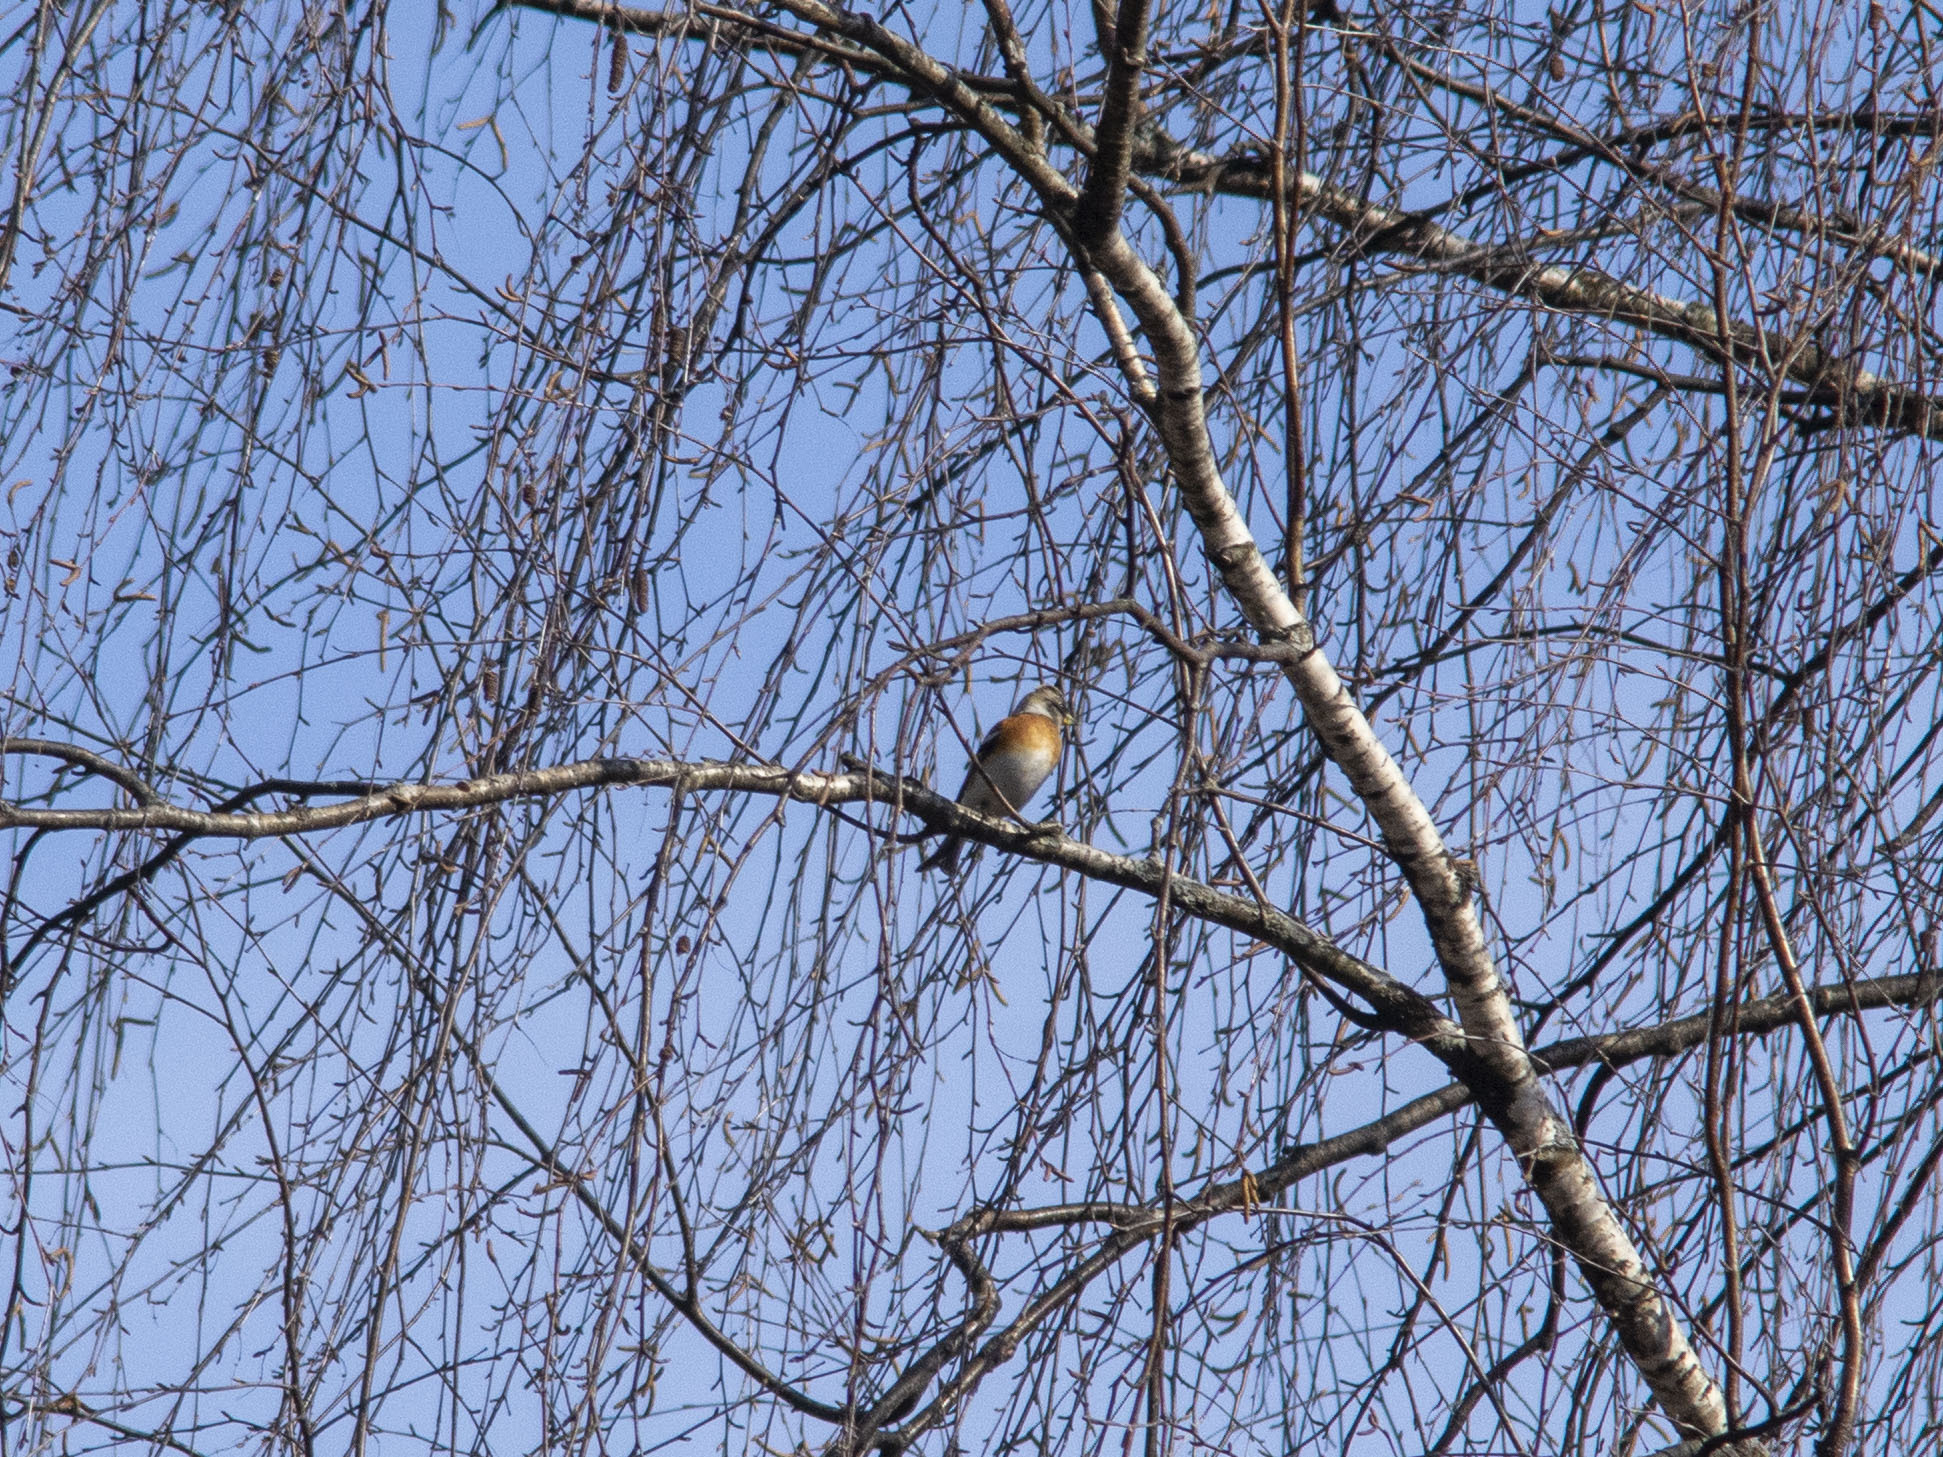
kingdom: Animalia
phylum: Chordata
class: Aves
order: Passeriformes
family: Fringillidae
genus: Fringilla
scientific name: Fringilla montifringilla
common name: Brambling
